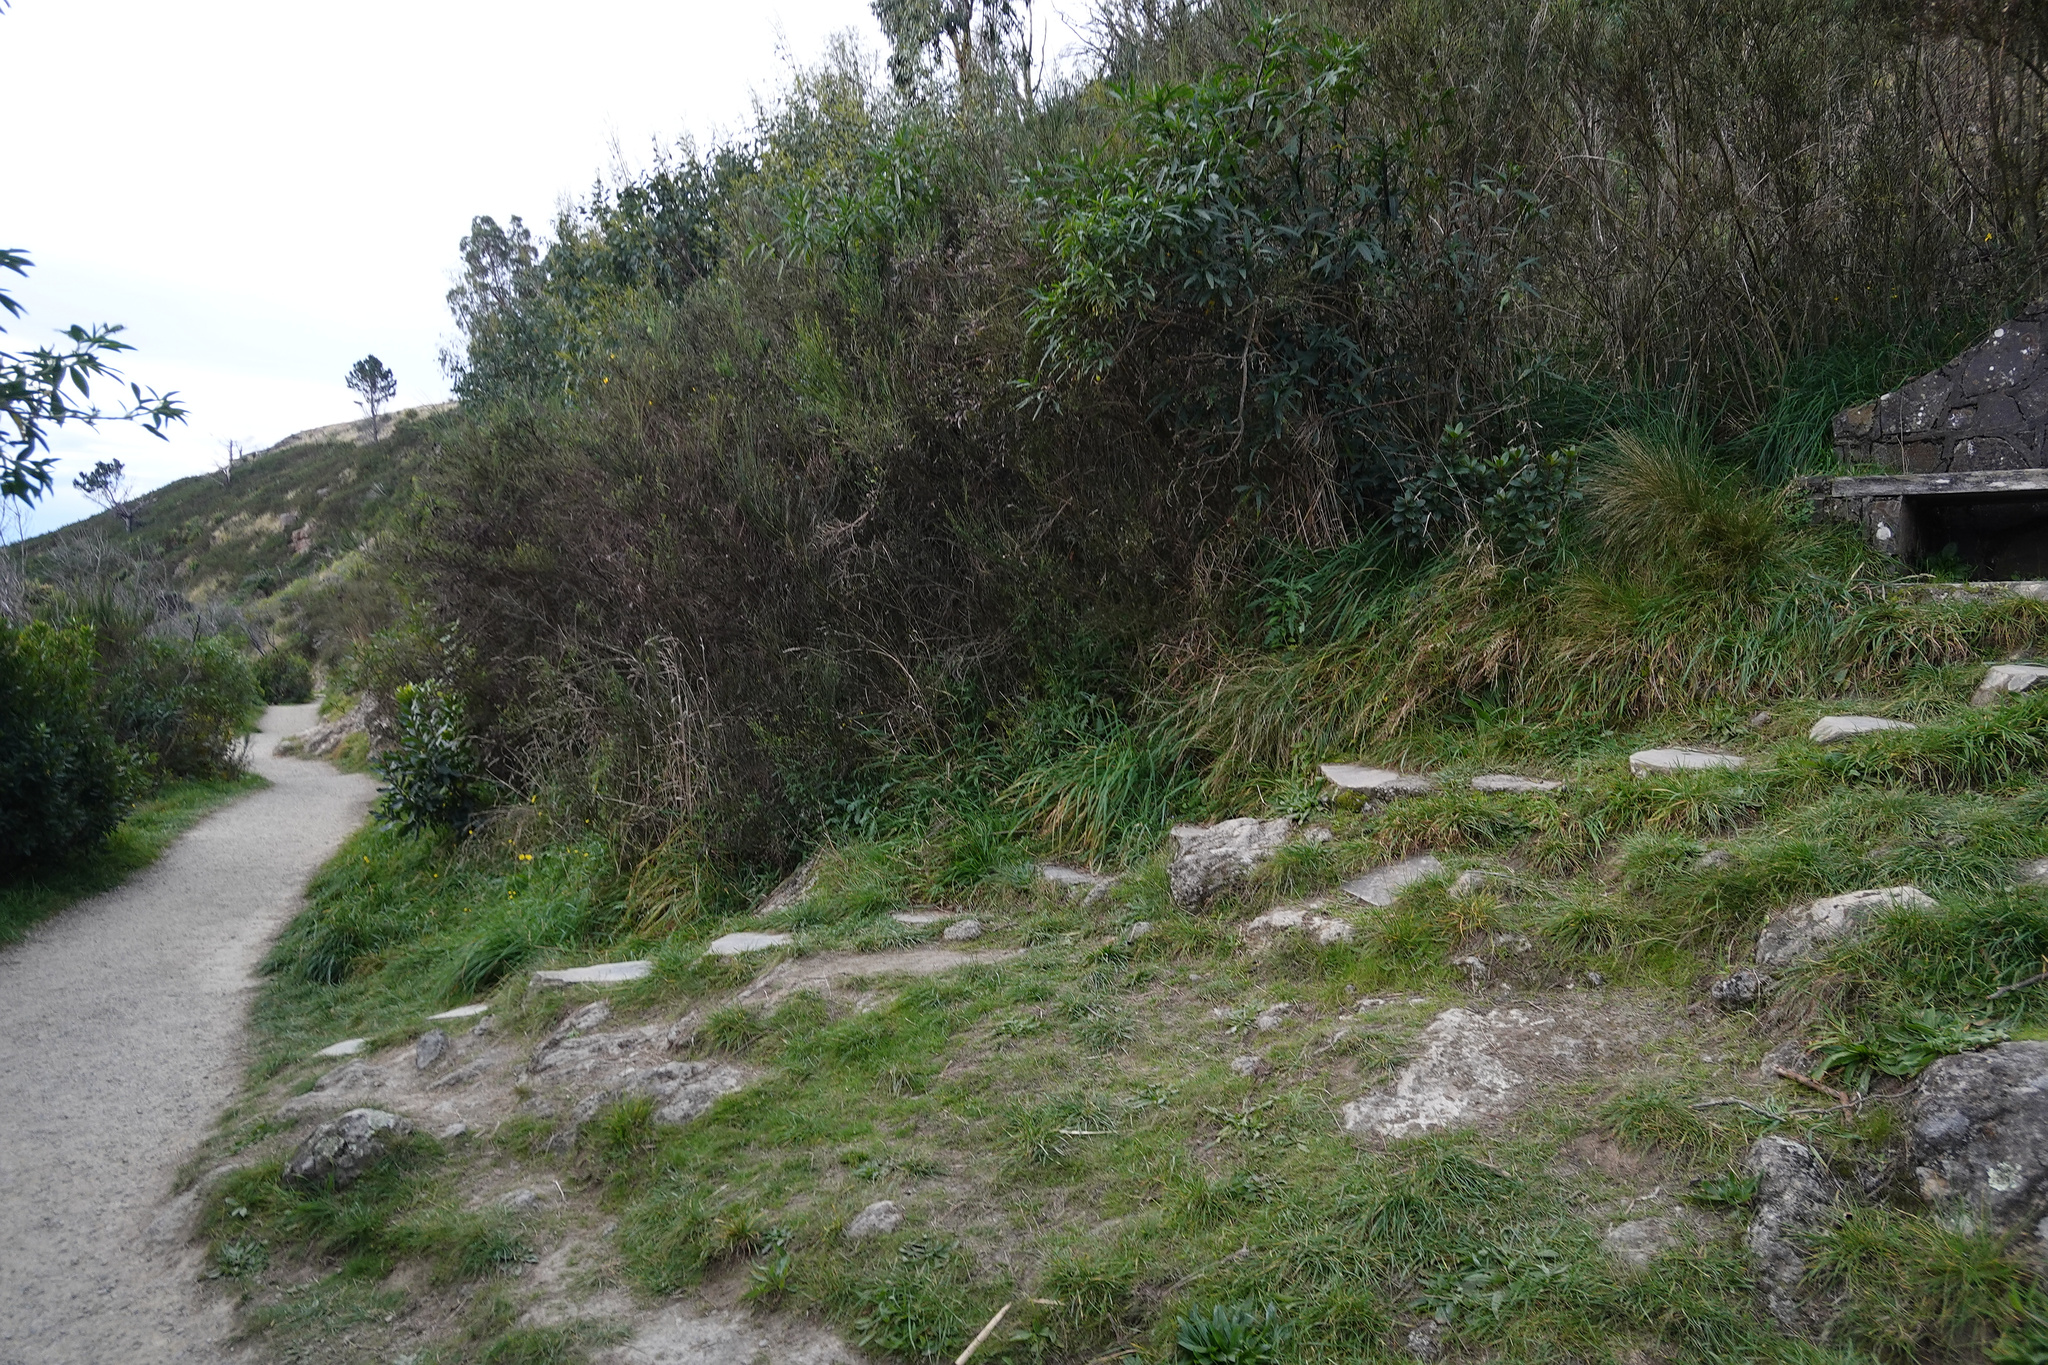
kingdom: Plantae
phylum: Tracheophyta
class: Magnoliopsida
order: Fabales
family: Fabaceae
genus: Cytisus
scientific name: Cytisus scoparius
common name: Scotch broom
